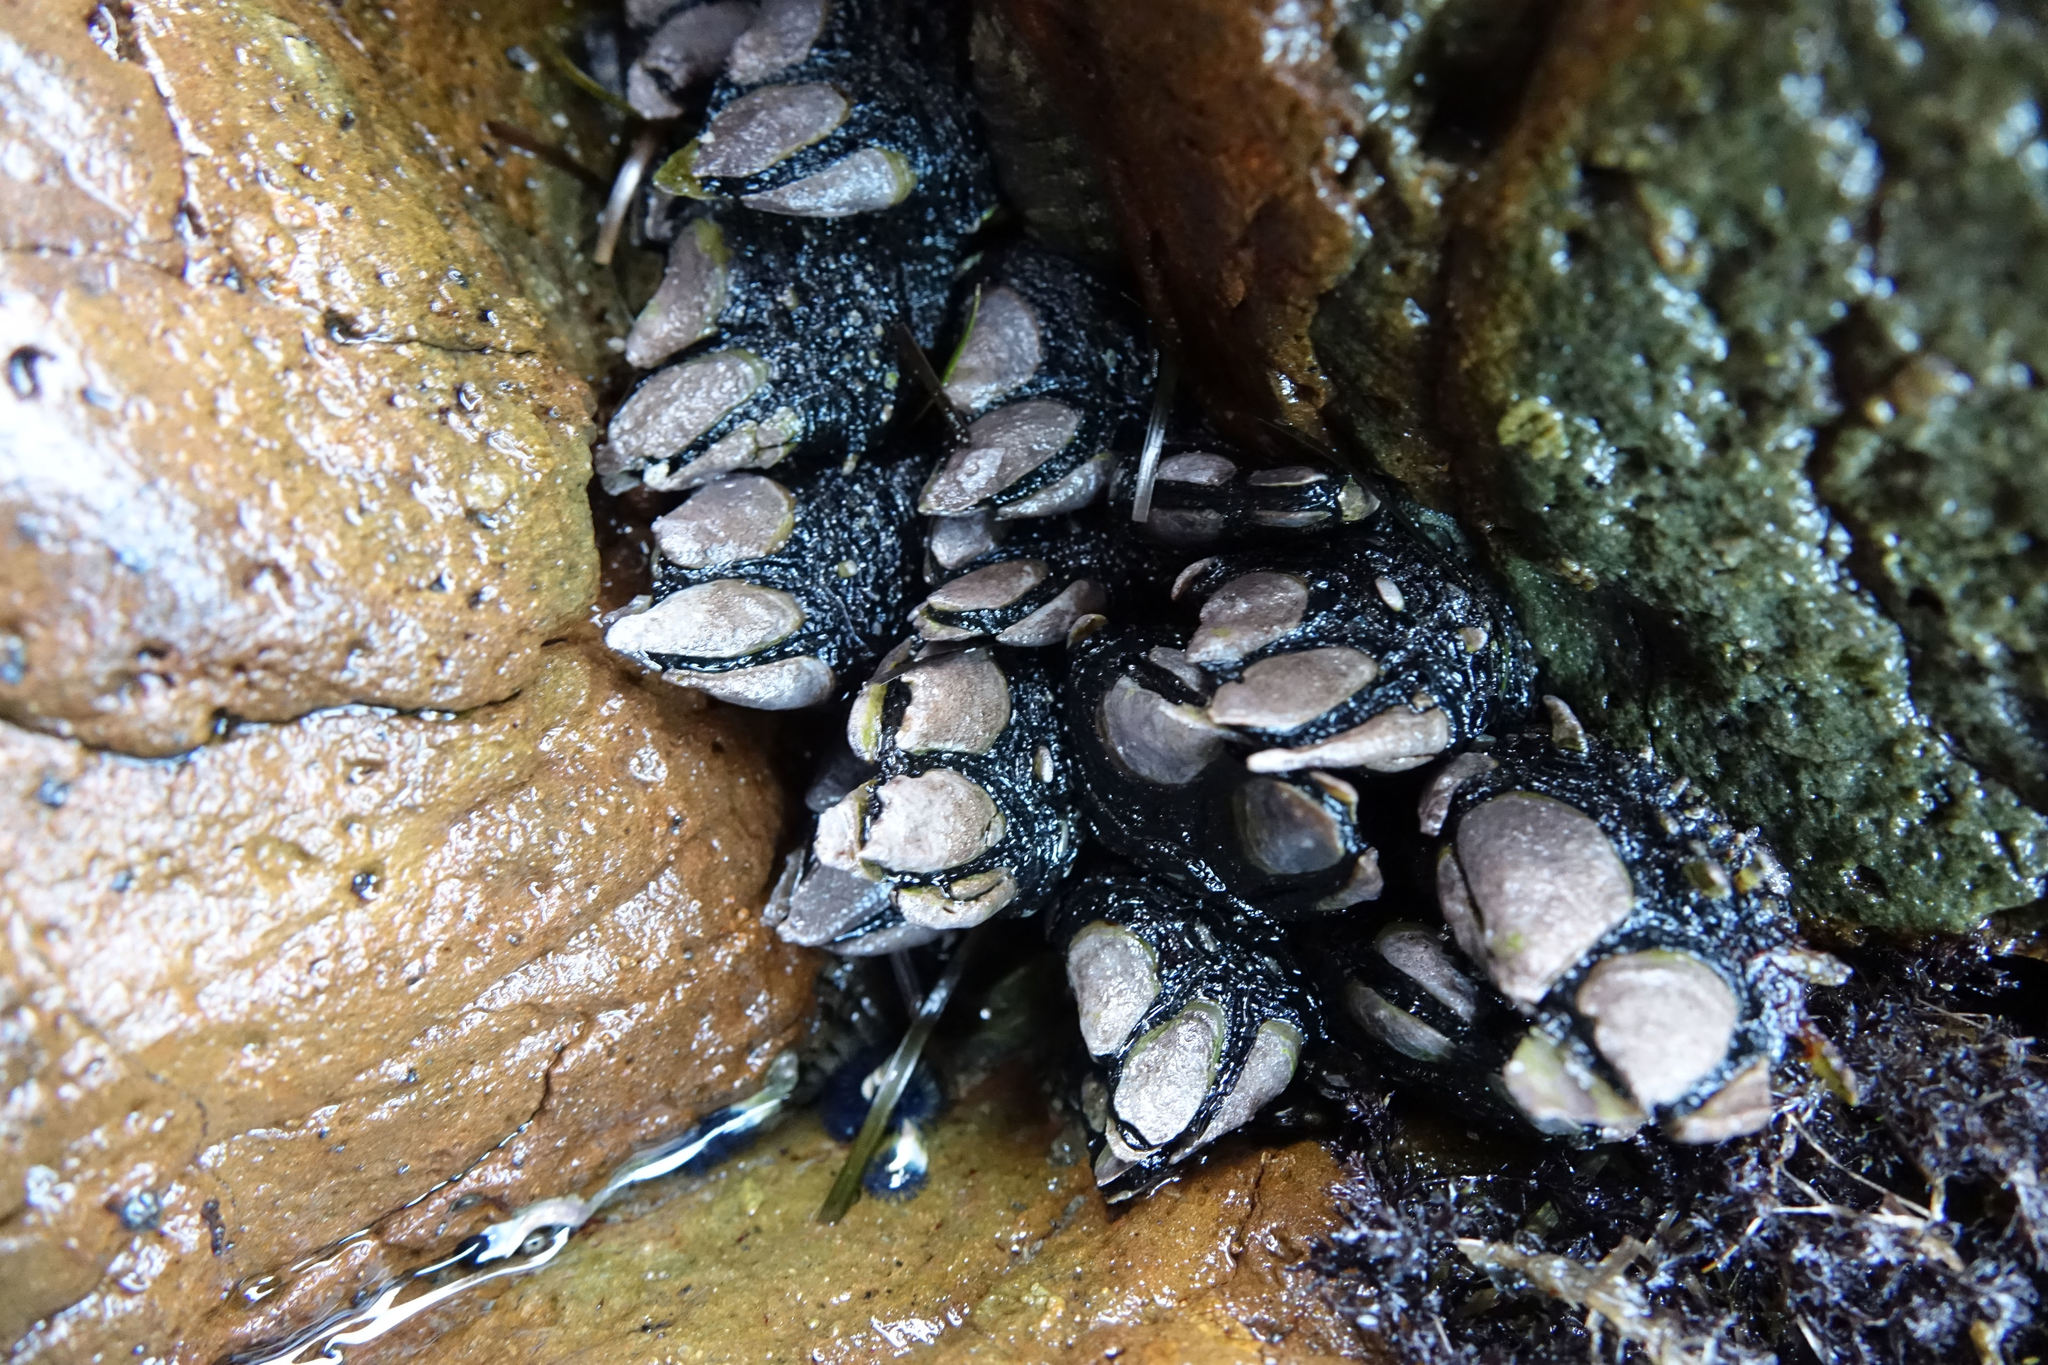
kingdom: Animalia
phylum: Arthropoda
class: Maxillopoda
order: Pedunculata
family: Calanticidae
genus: Calantica
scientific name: Calantica spinosa
